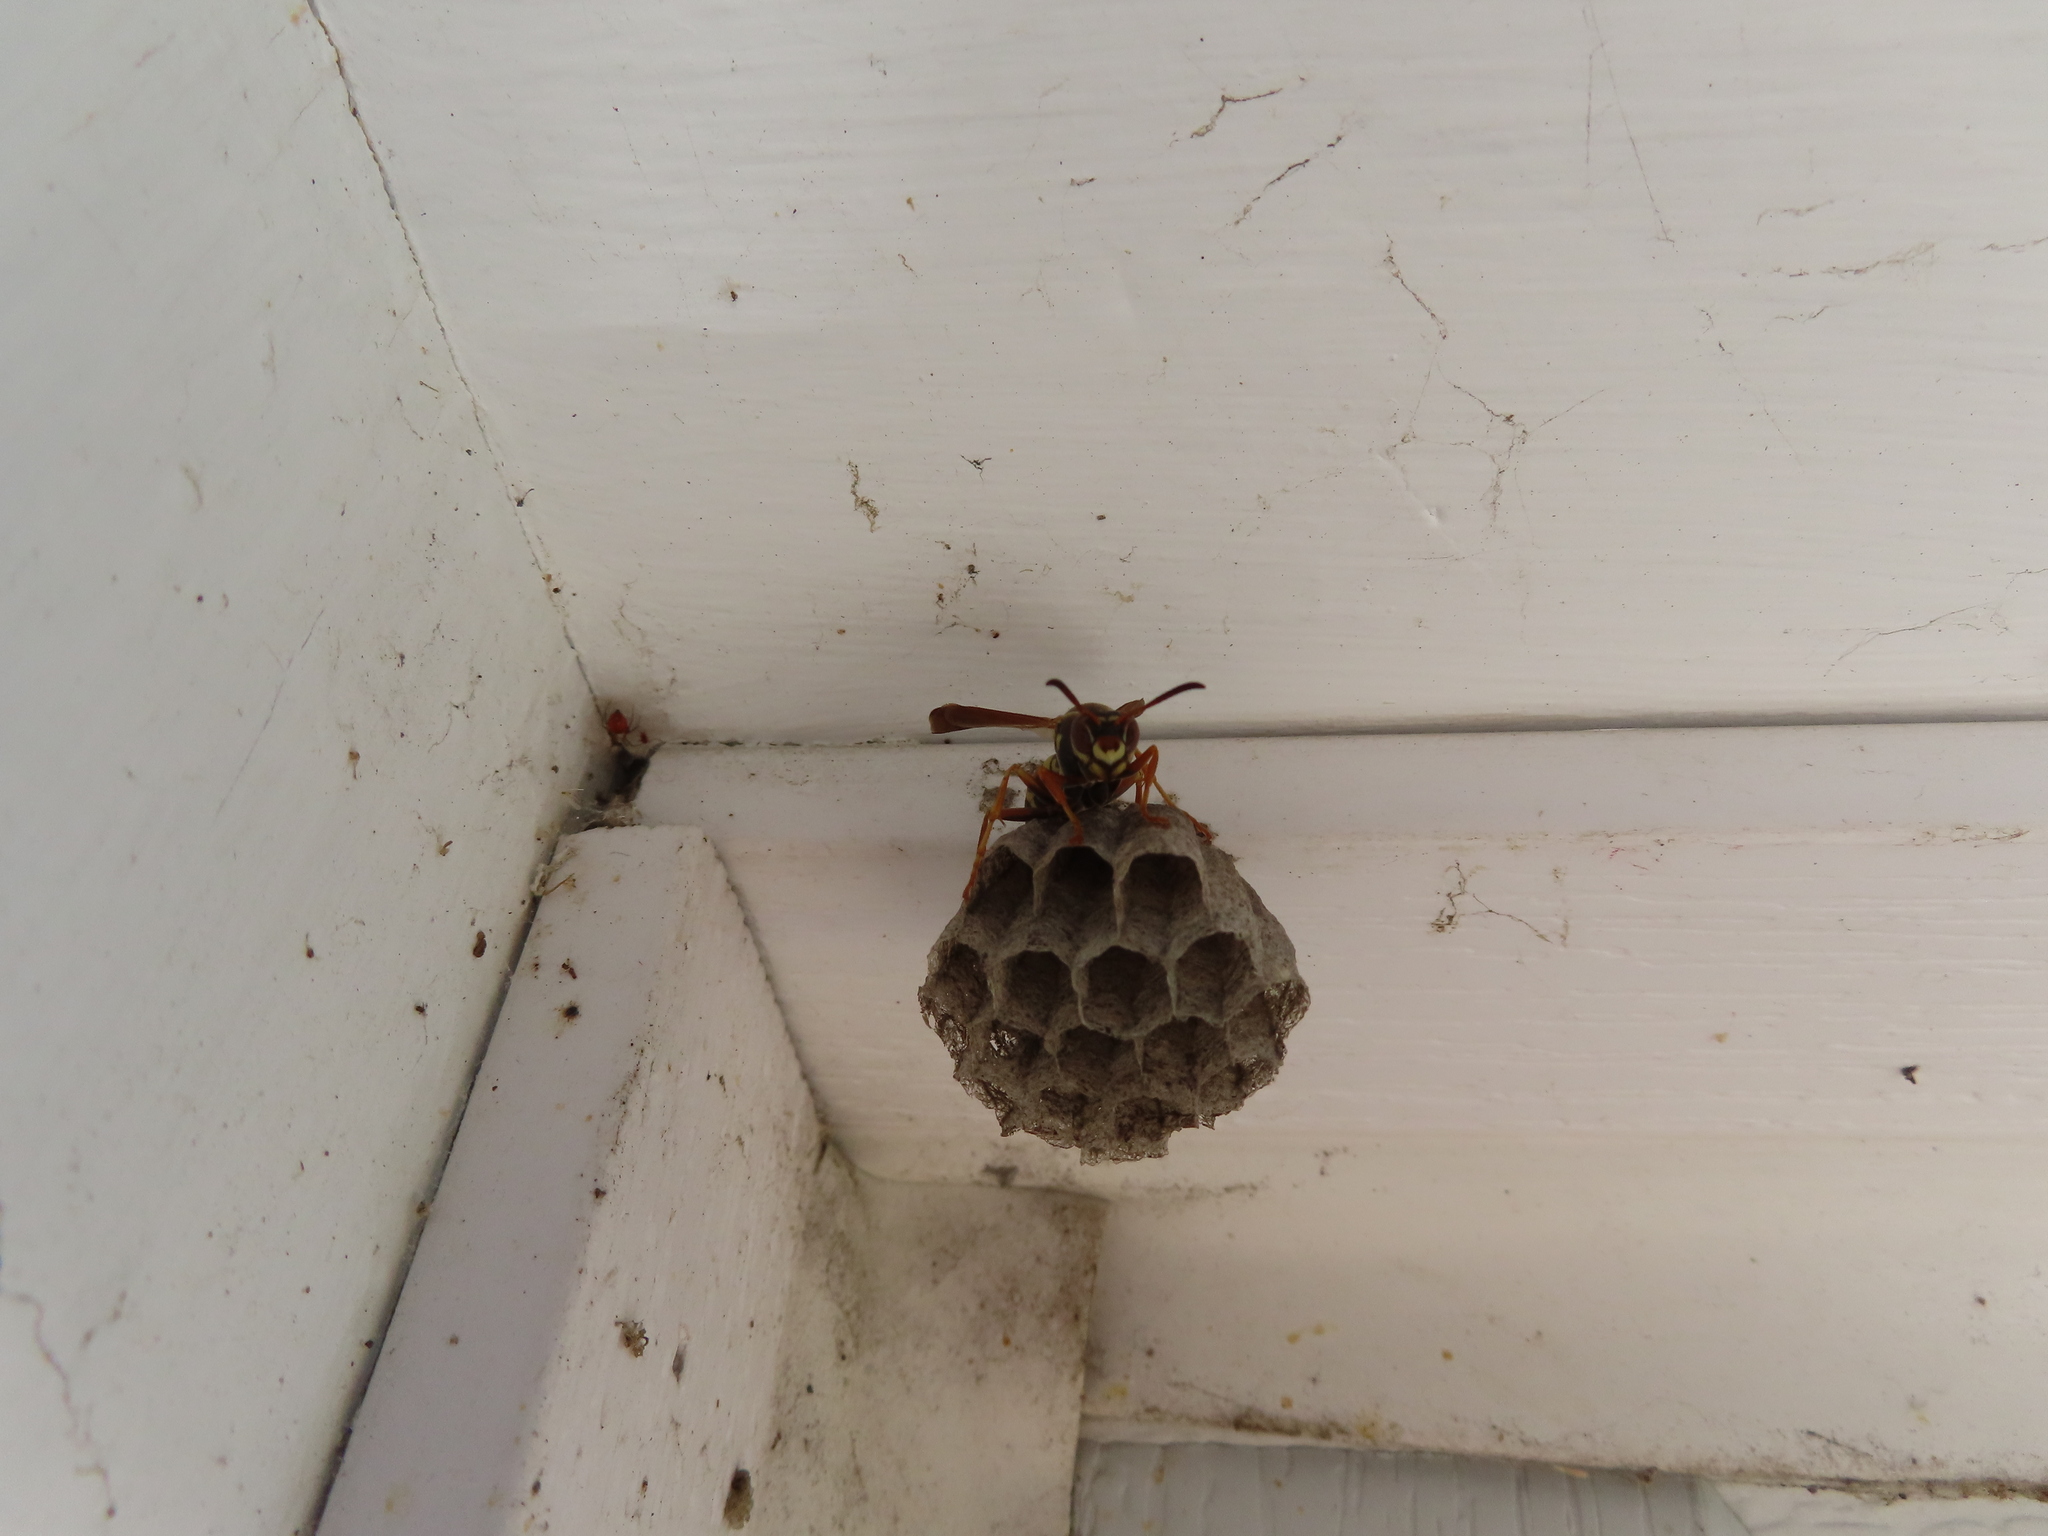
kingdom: Animalia
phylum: Arthropoda
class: Insecta
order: Hymenoptera
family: Eumenidae
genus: Polistes
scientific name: Polistes fuscatus
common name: Dark paper wasp
